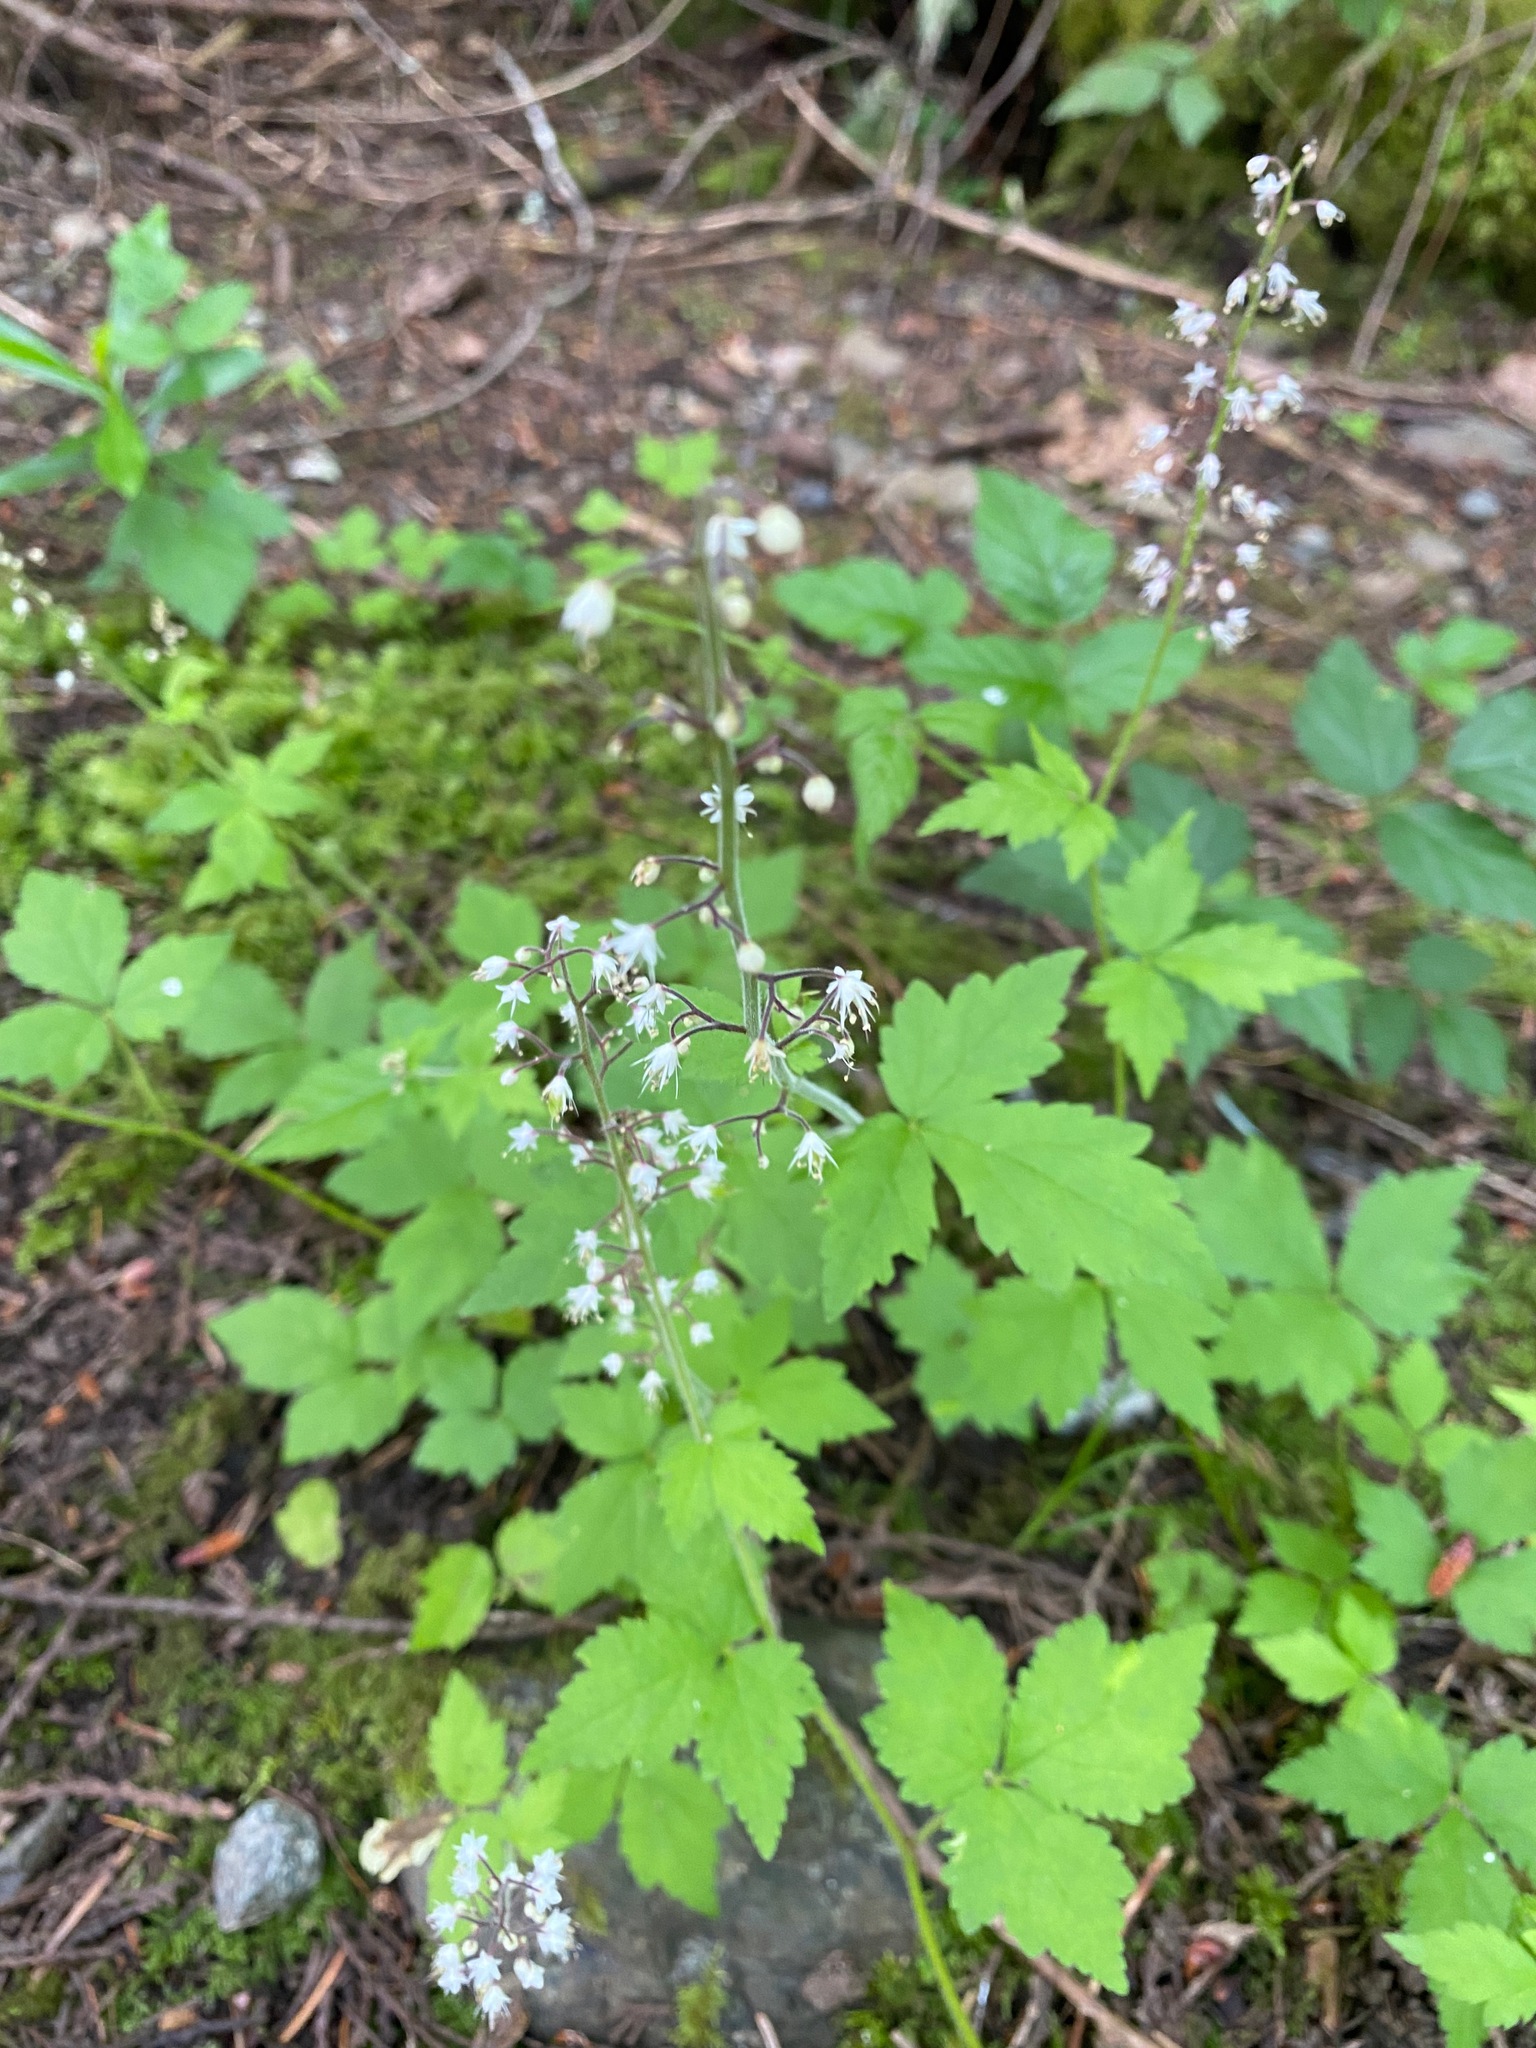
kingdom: Plantae
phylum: Tracheophyta
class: Magnoliopsida
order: Saxifragales
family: Saxifragaceae
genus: Tiarella
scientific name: Tiarella trifoliata
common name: Sugar-scoop
